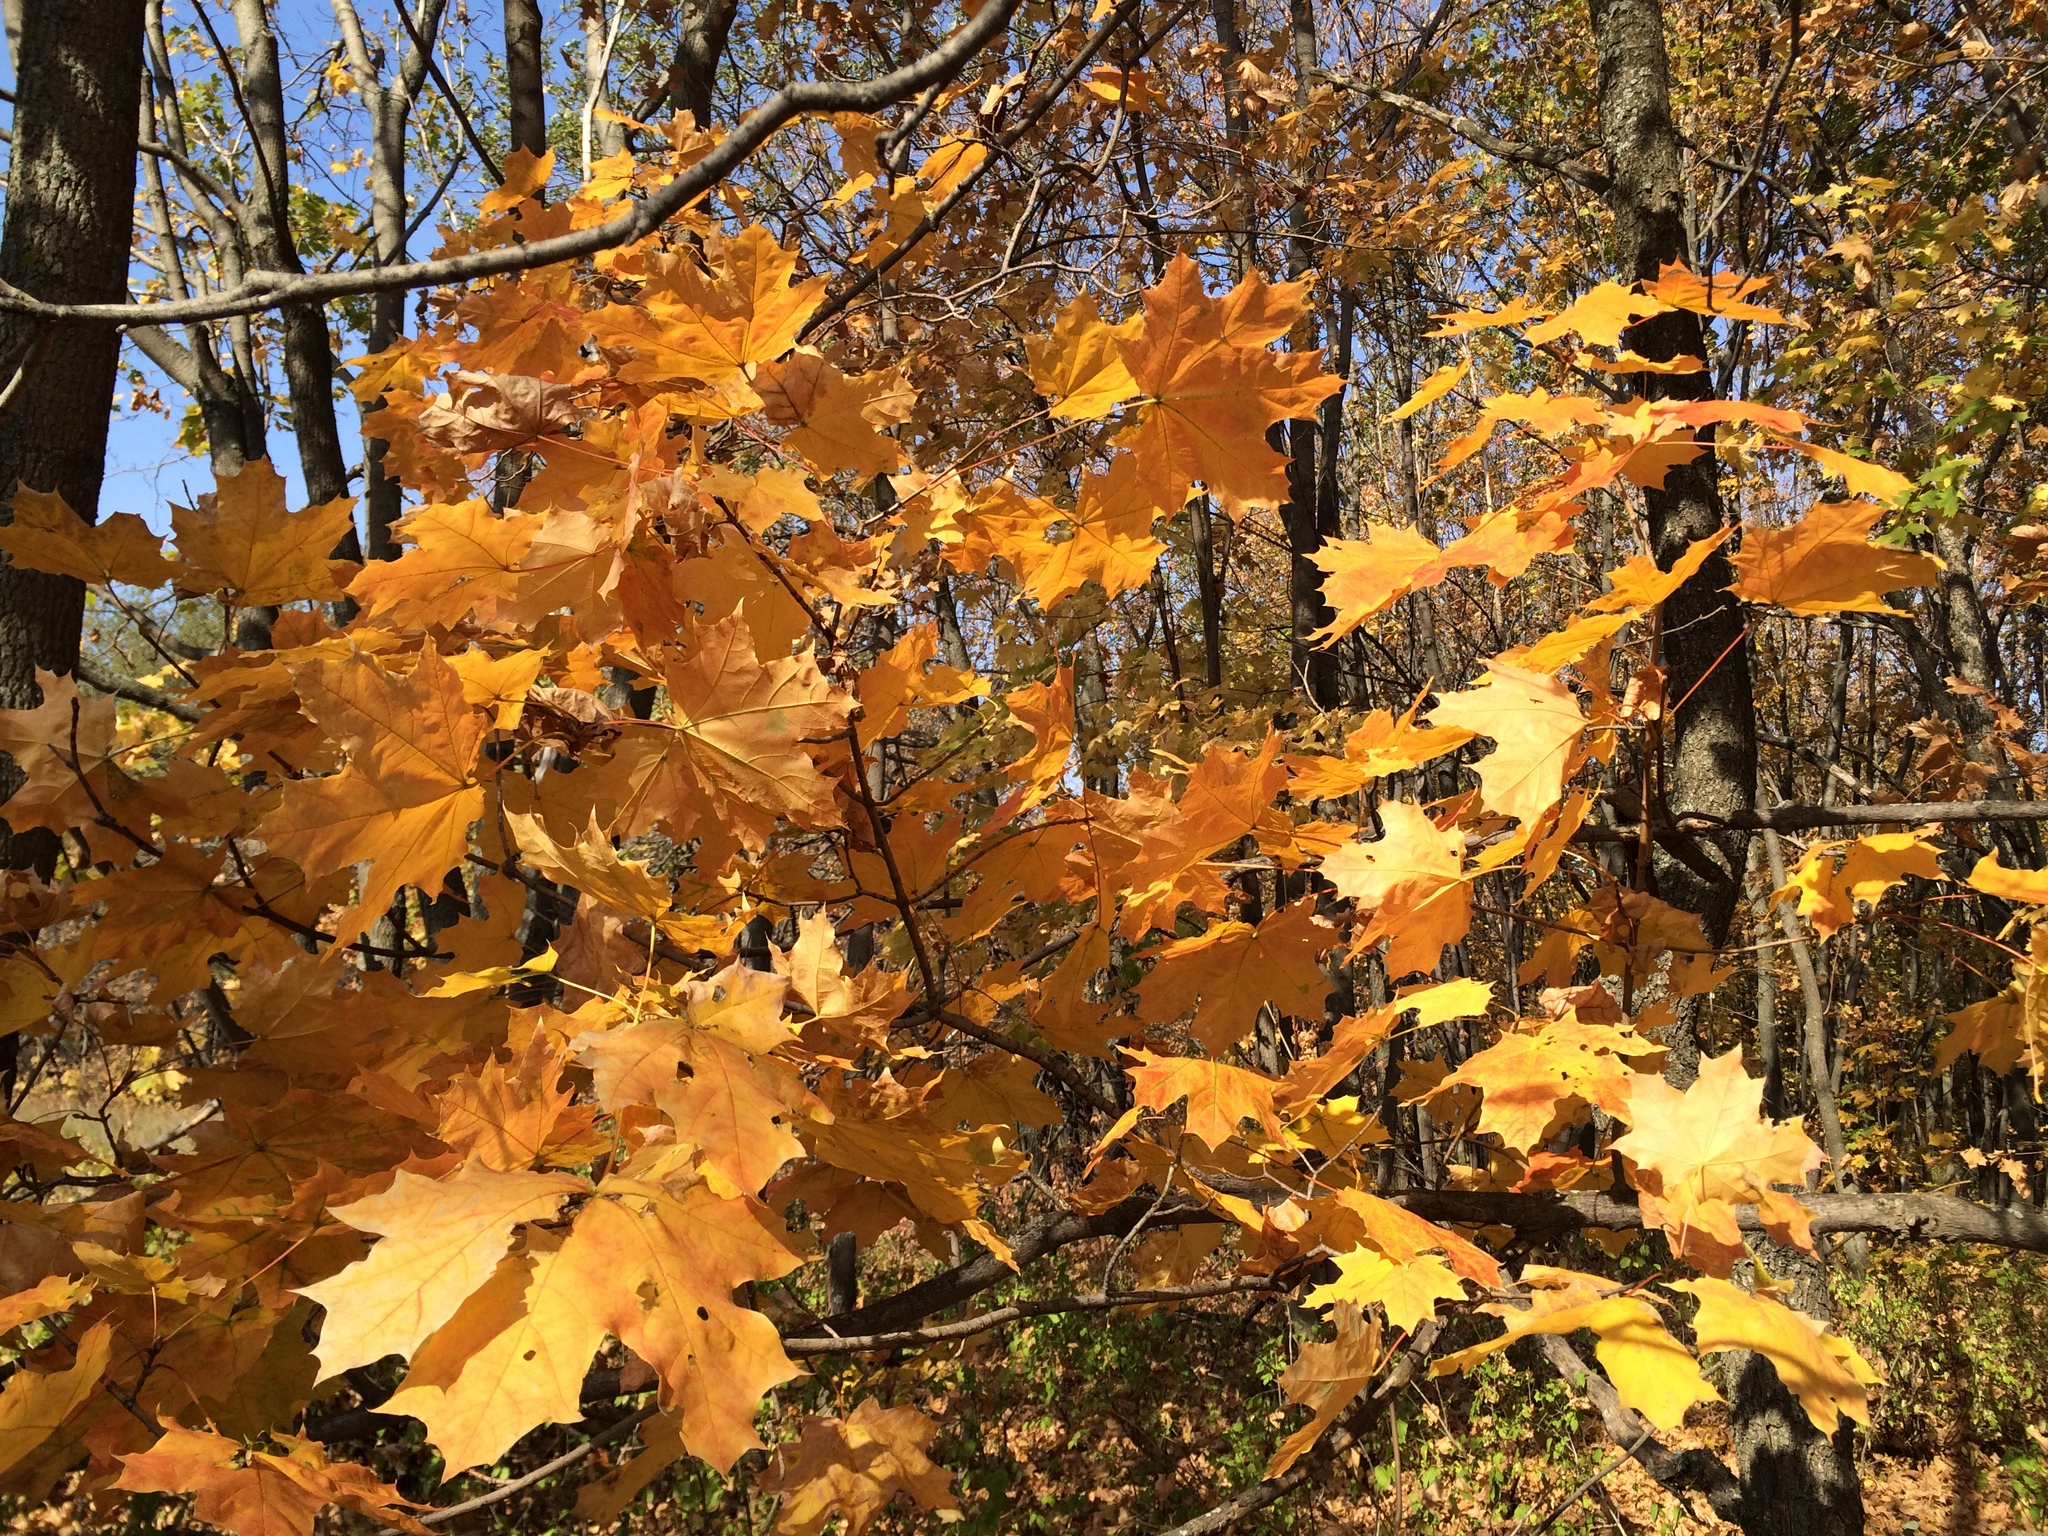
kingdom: Plantae
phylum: Tracheophyta
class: Magnoliopsida
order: Sapindales
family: Sapindaceae
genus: Acer
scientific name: Acer platanoides
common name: Norway maple
